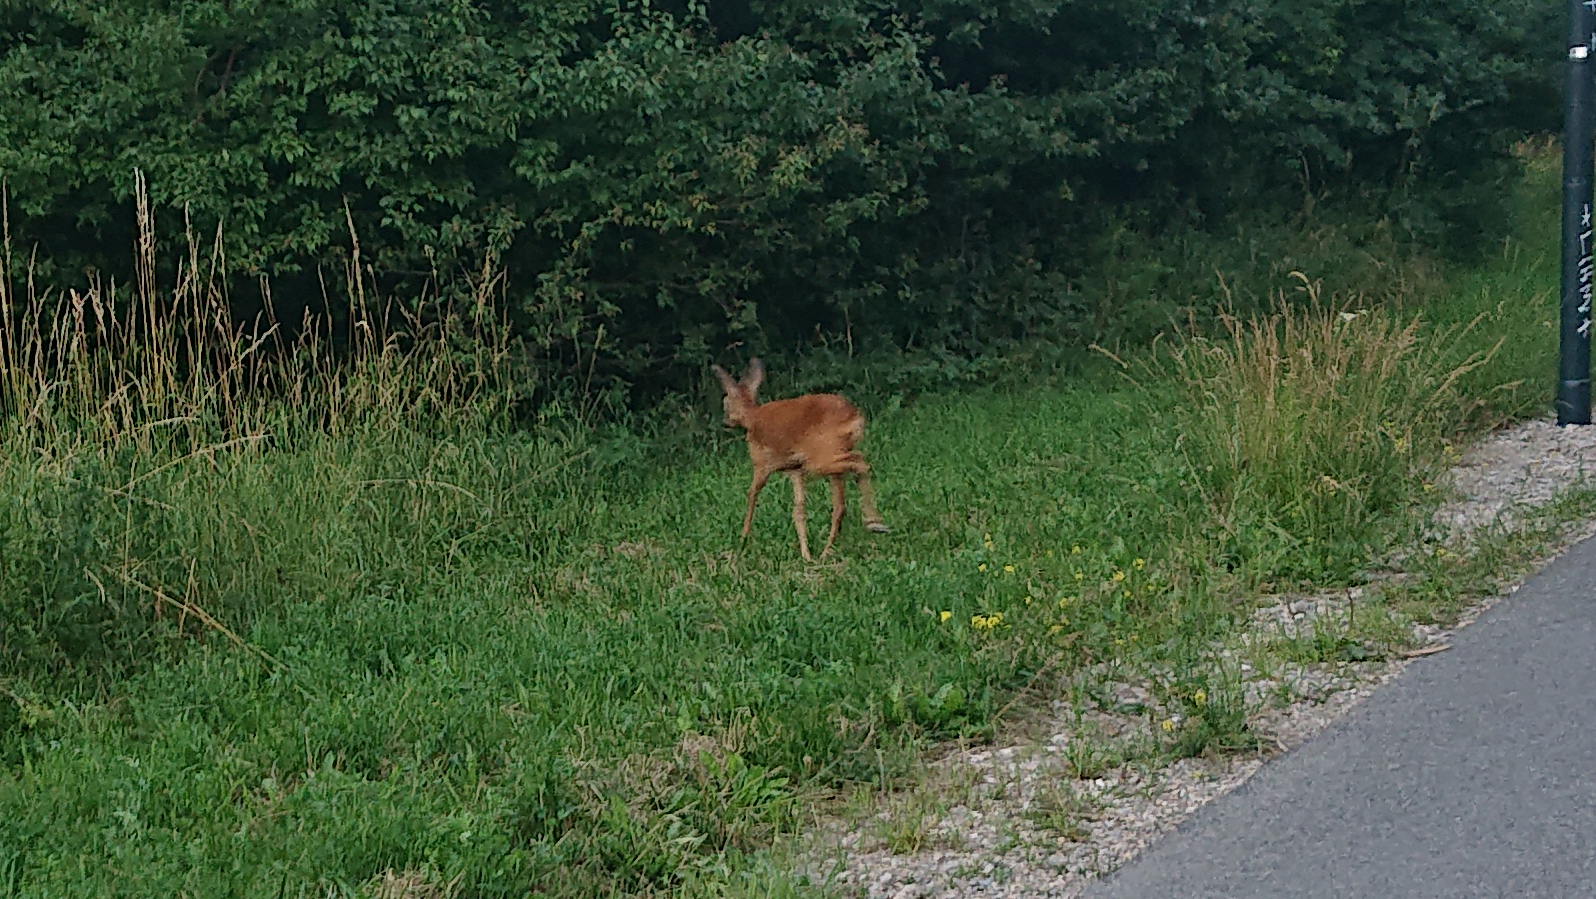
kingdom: Animalia
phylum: Chordata
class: Mammalia
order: Artiodactyla
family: Cervidae
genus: Capreolus
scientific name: Capreolus capreolus
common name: Western roe deer
